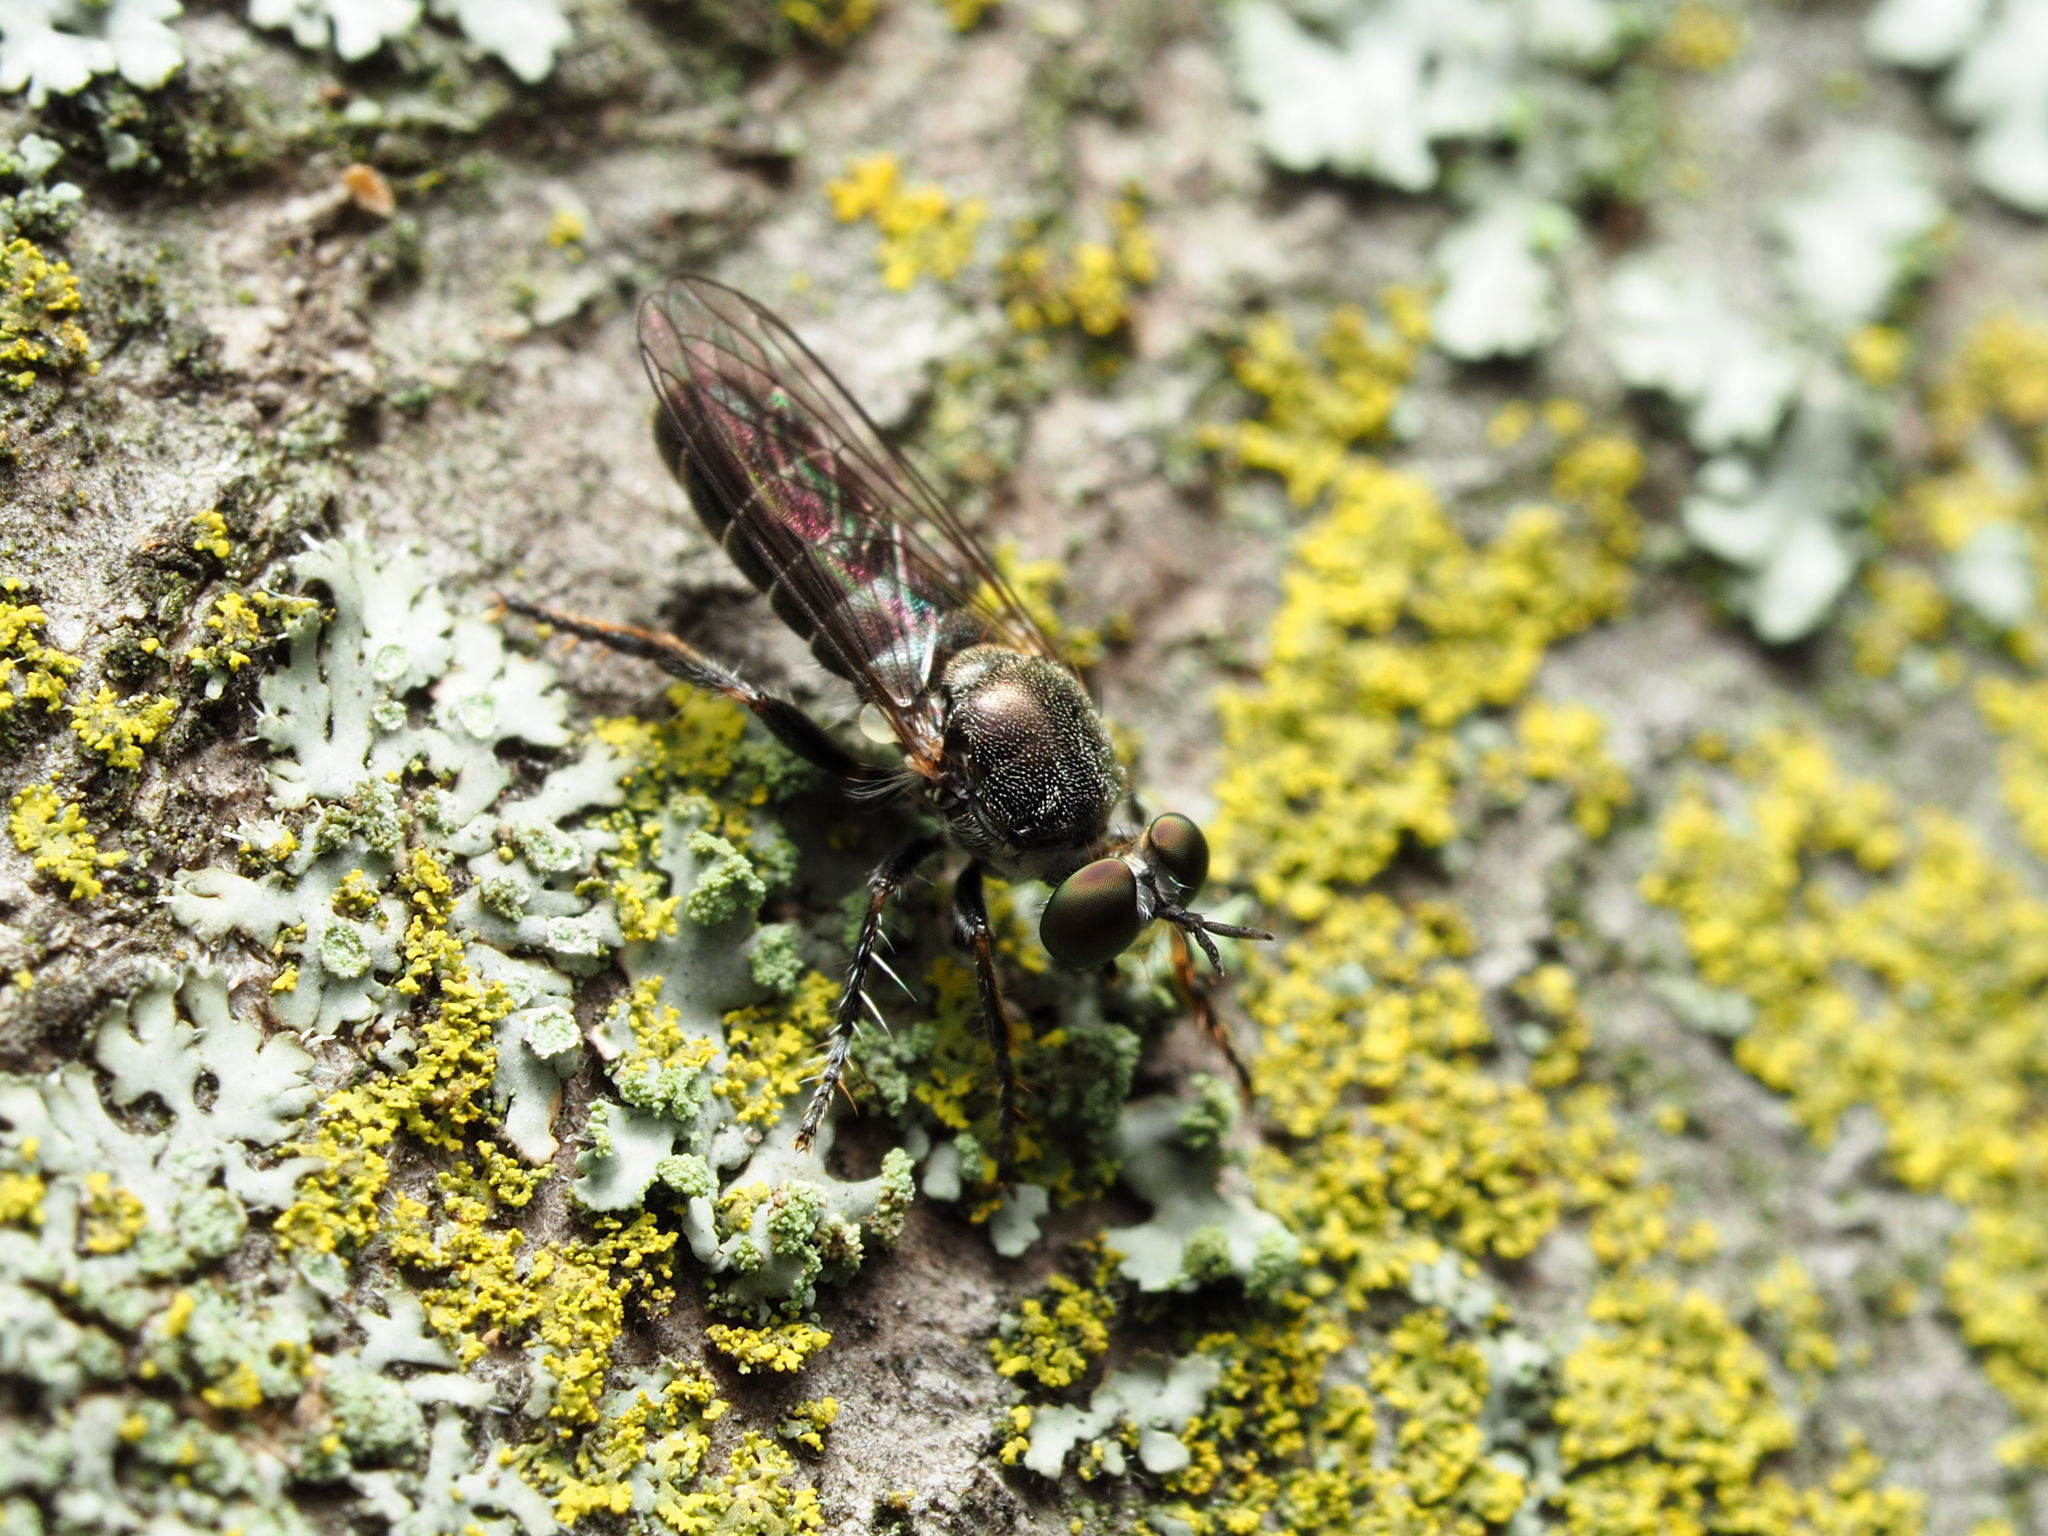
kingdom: Animalia
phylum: Arthropoda
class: Insecta
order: Diptera
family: Asilidae
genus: Atomosia
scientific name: Atomosia puella
